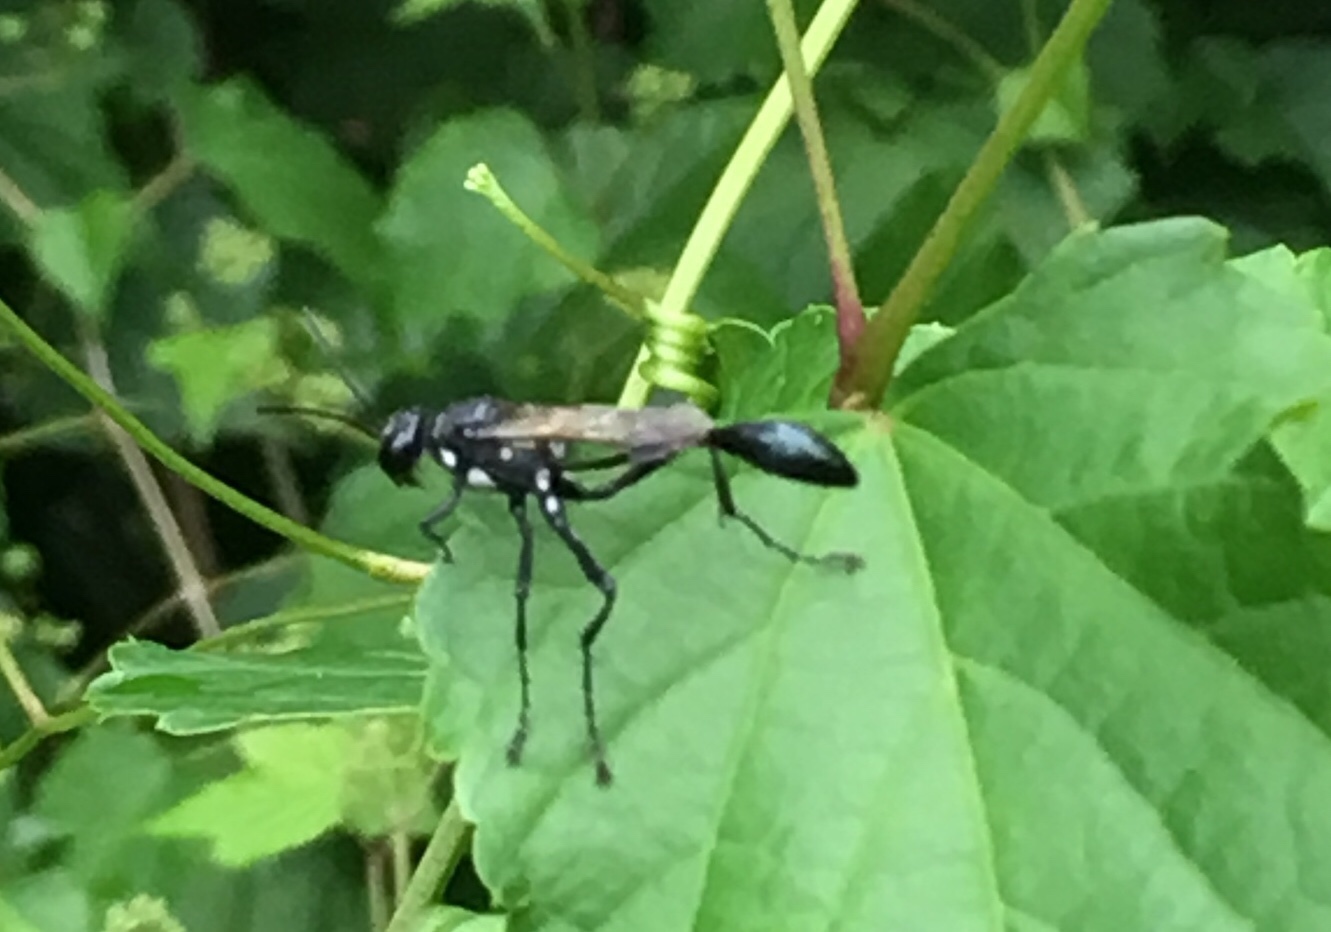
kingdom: Animalia
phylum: Arthropoda
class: Insecta
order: Hymenoptera
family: Sphecidae
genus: Eremnophila
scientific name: Eremnophila aureonotata
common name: Gold-marked thread-waisted wasp
